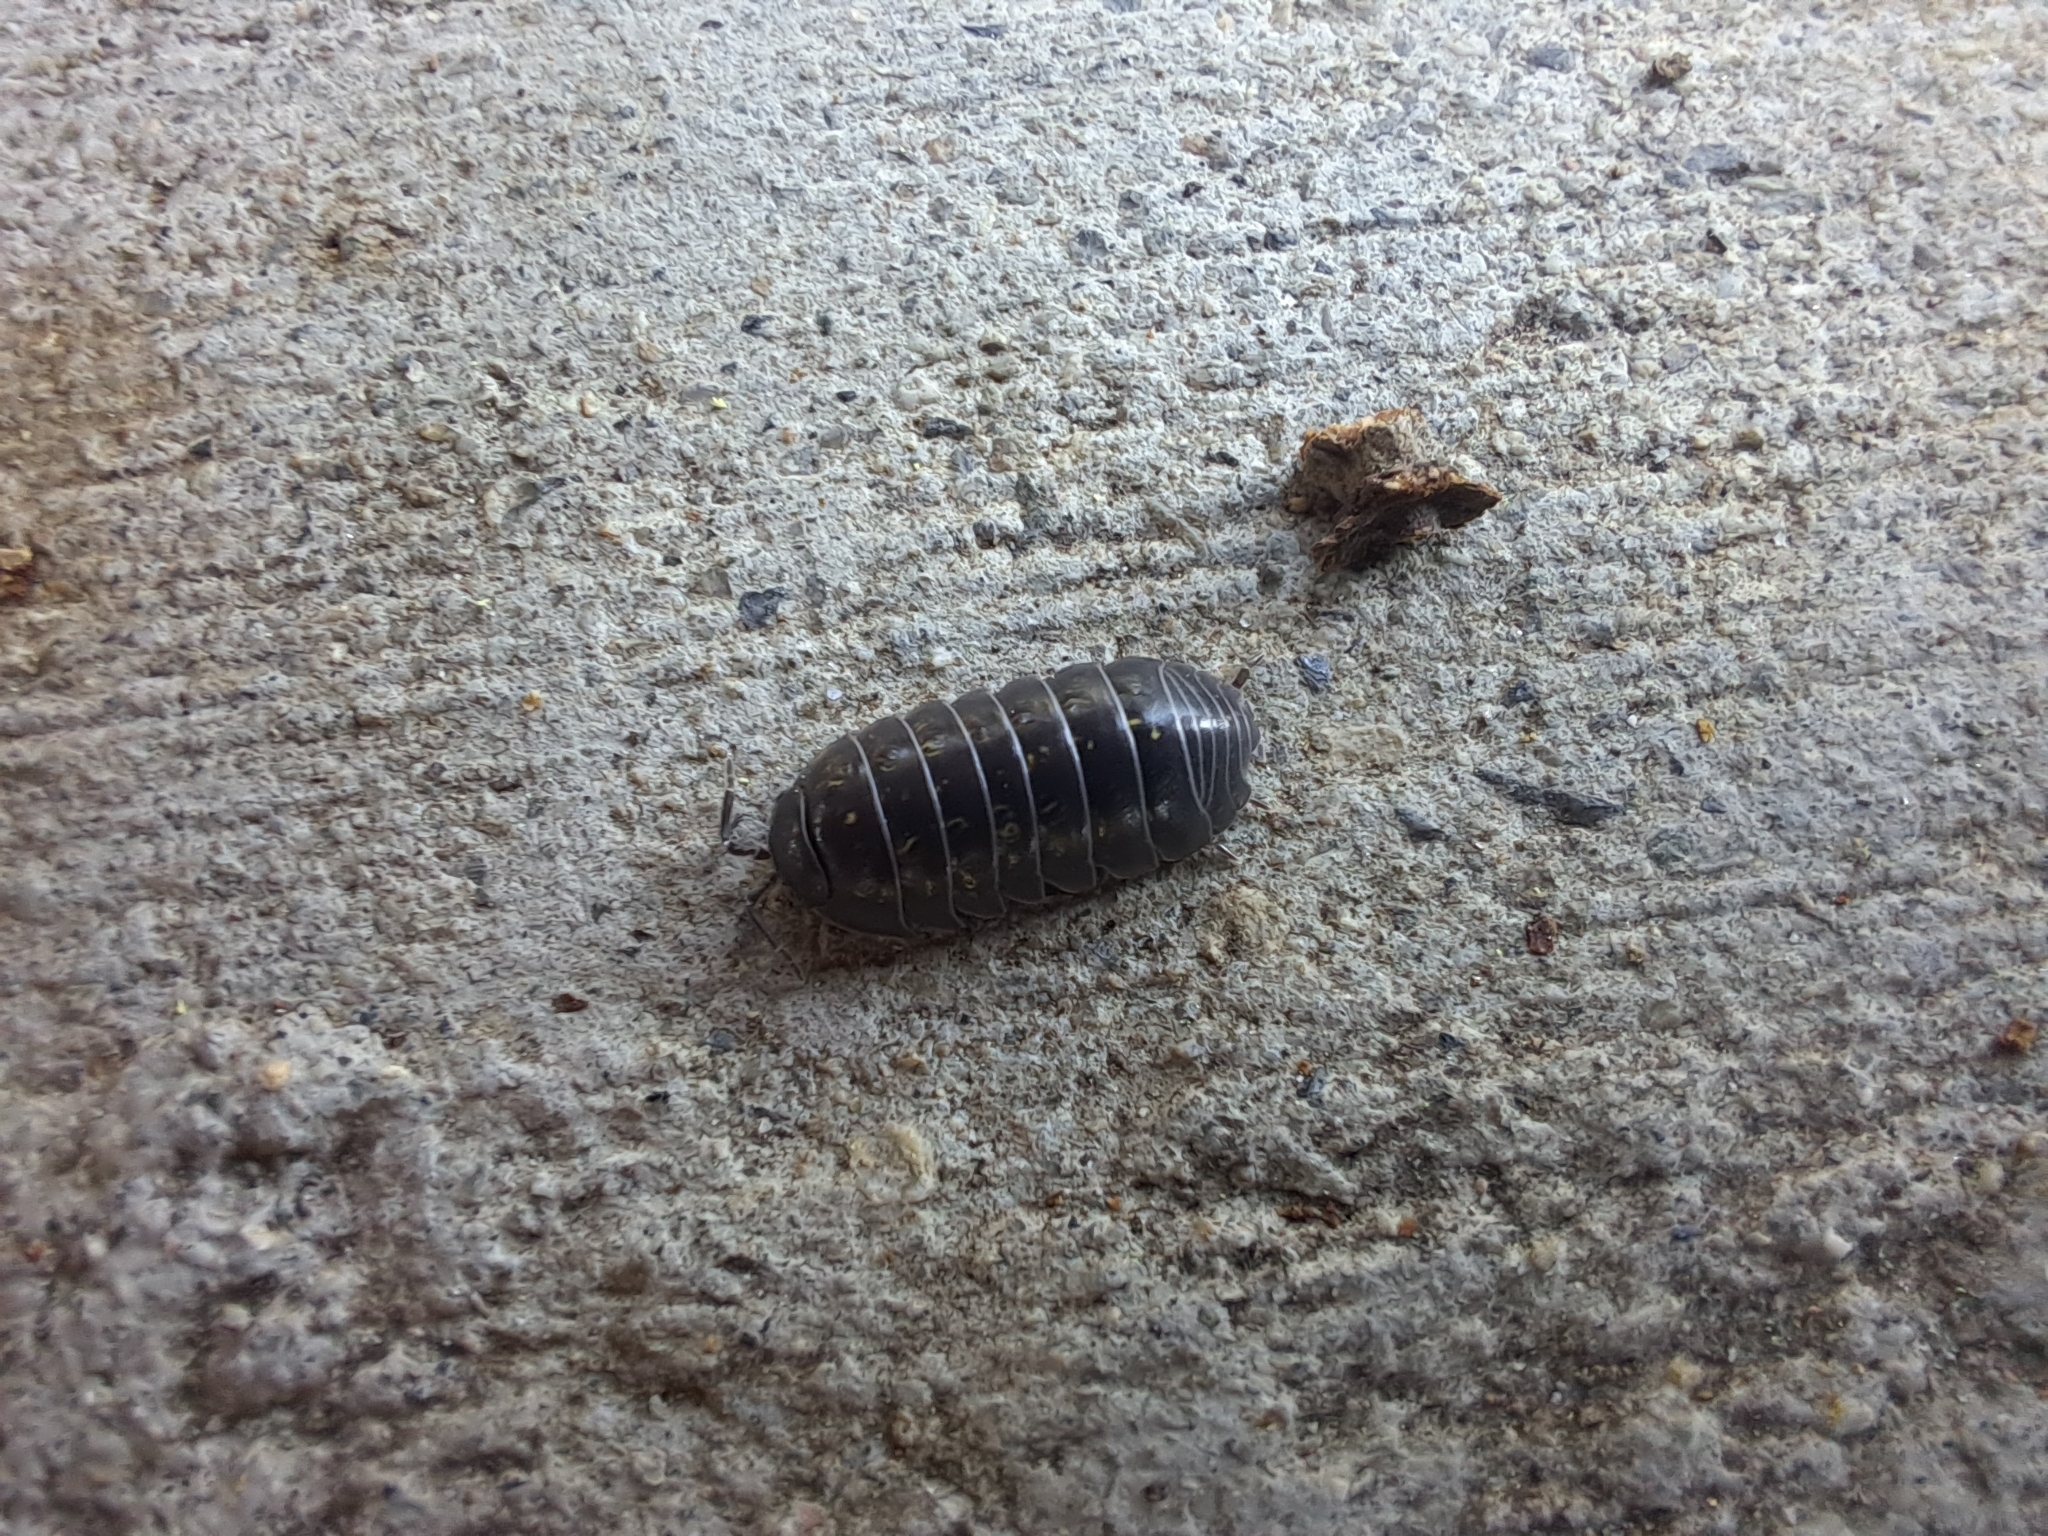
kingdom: Animalia
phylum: Arthropoda
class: Malacostraca
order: Isopoda
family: Armadillidiidae
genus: Armadillidium
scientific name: Armadillidium vulgare
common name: Common pill woodlouse
